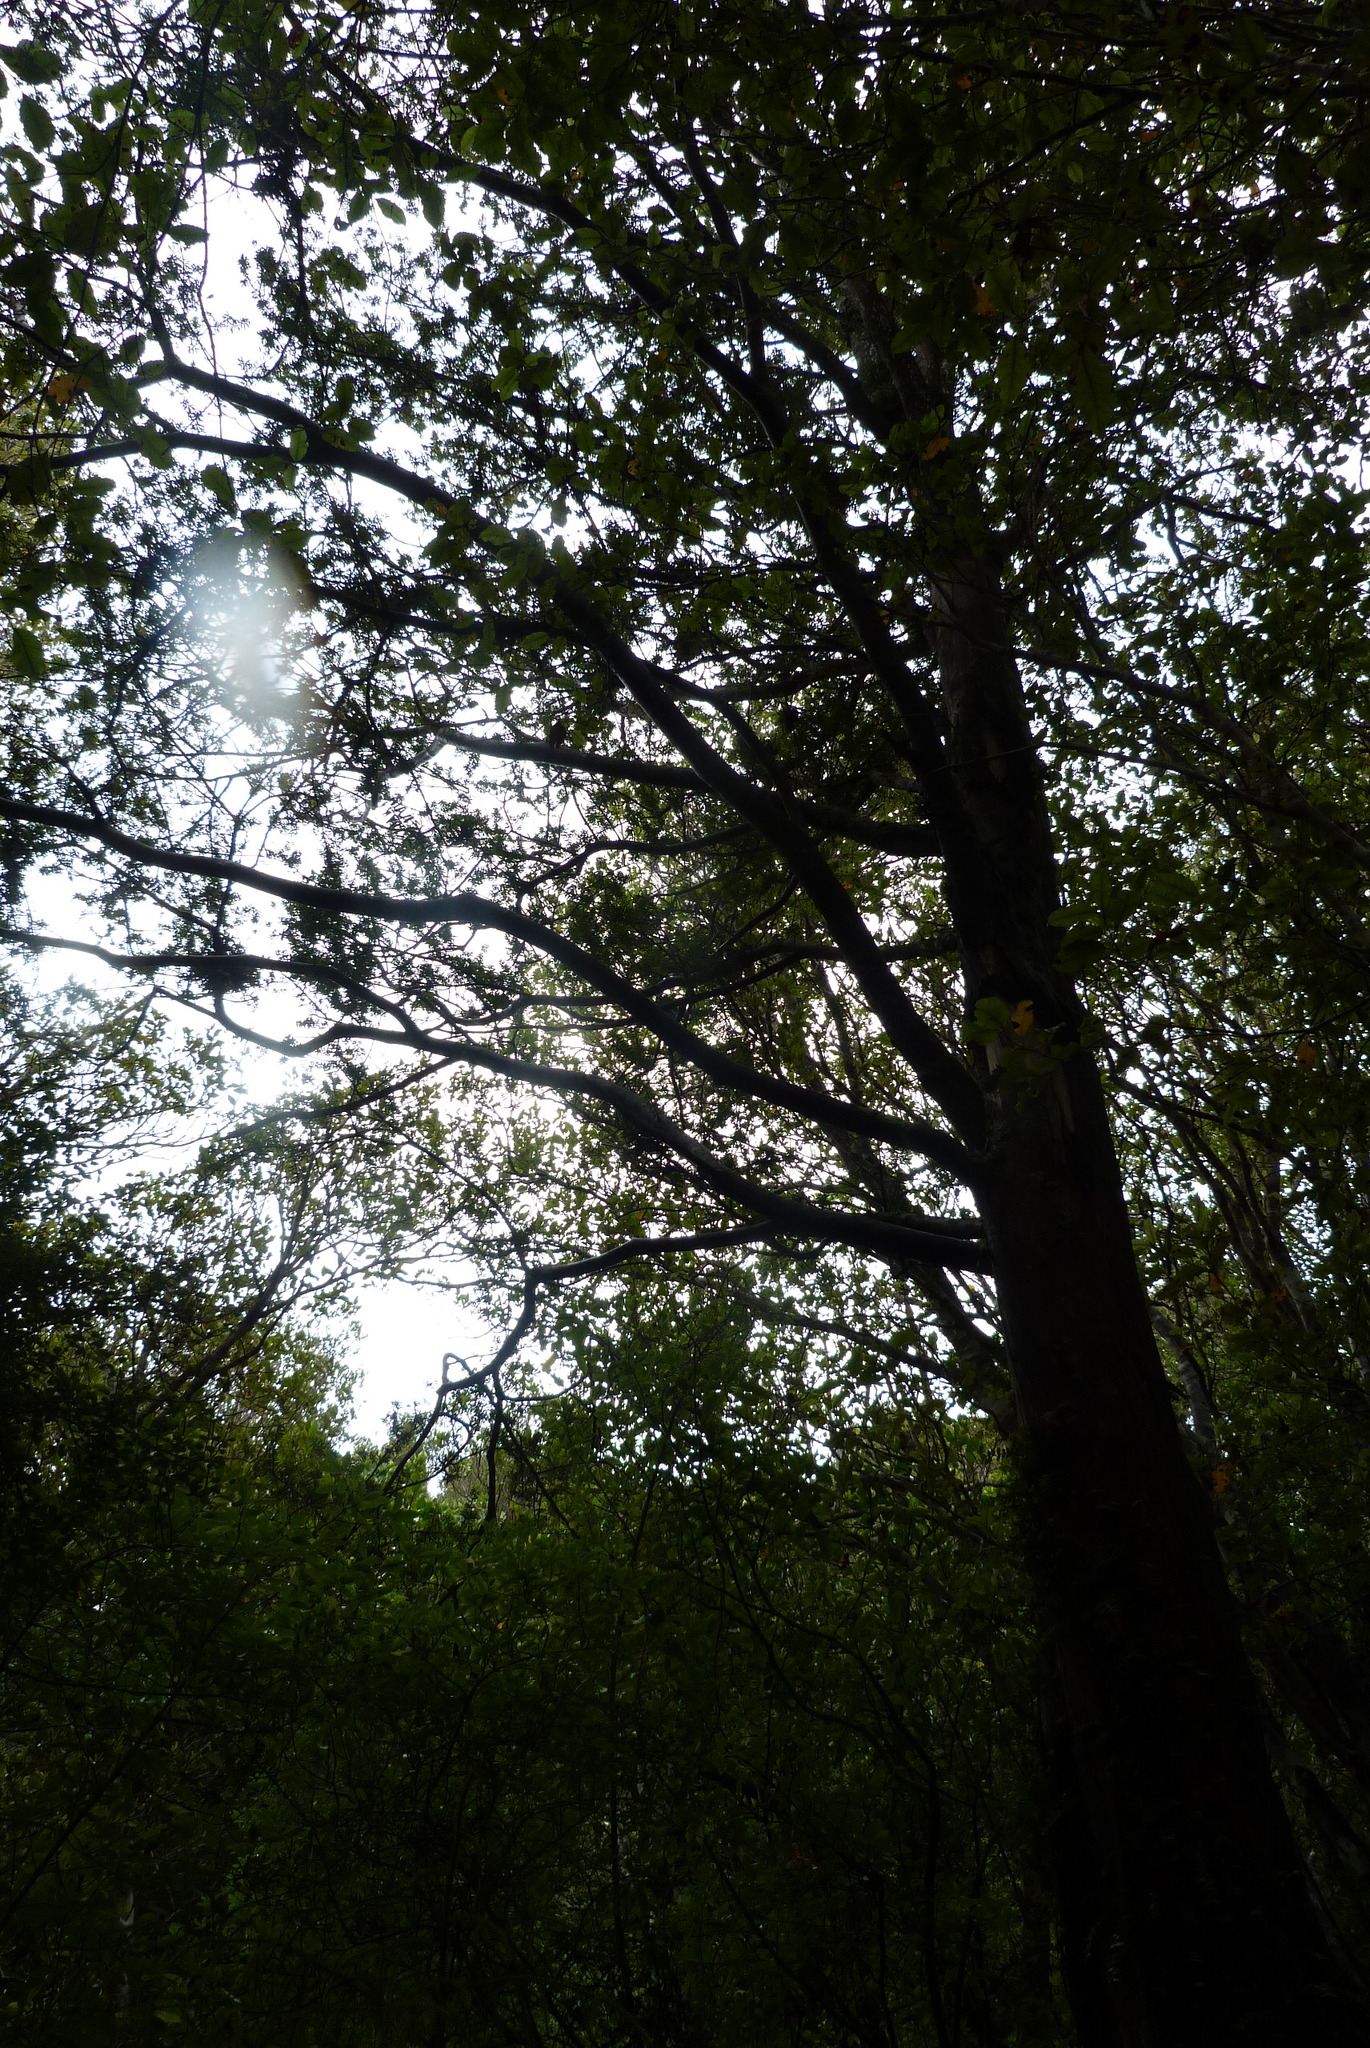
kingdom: Plantae
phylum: Tracheophyta
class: Pinopsida
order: Pinales
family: Podocarpaceae
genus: Podocarpus
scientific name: Podocarpus laetus
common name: Hall's totara
